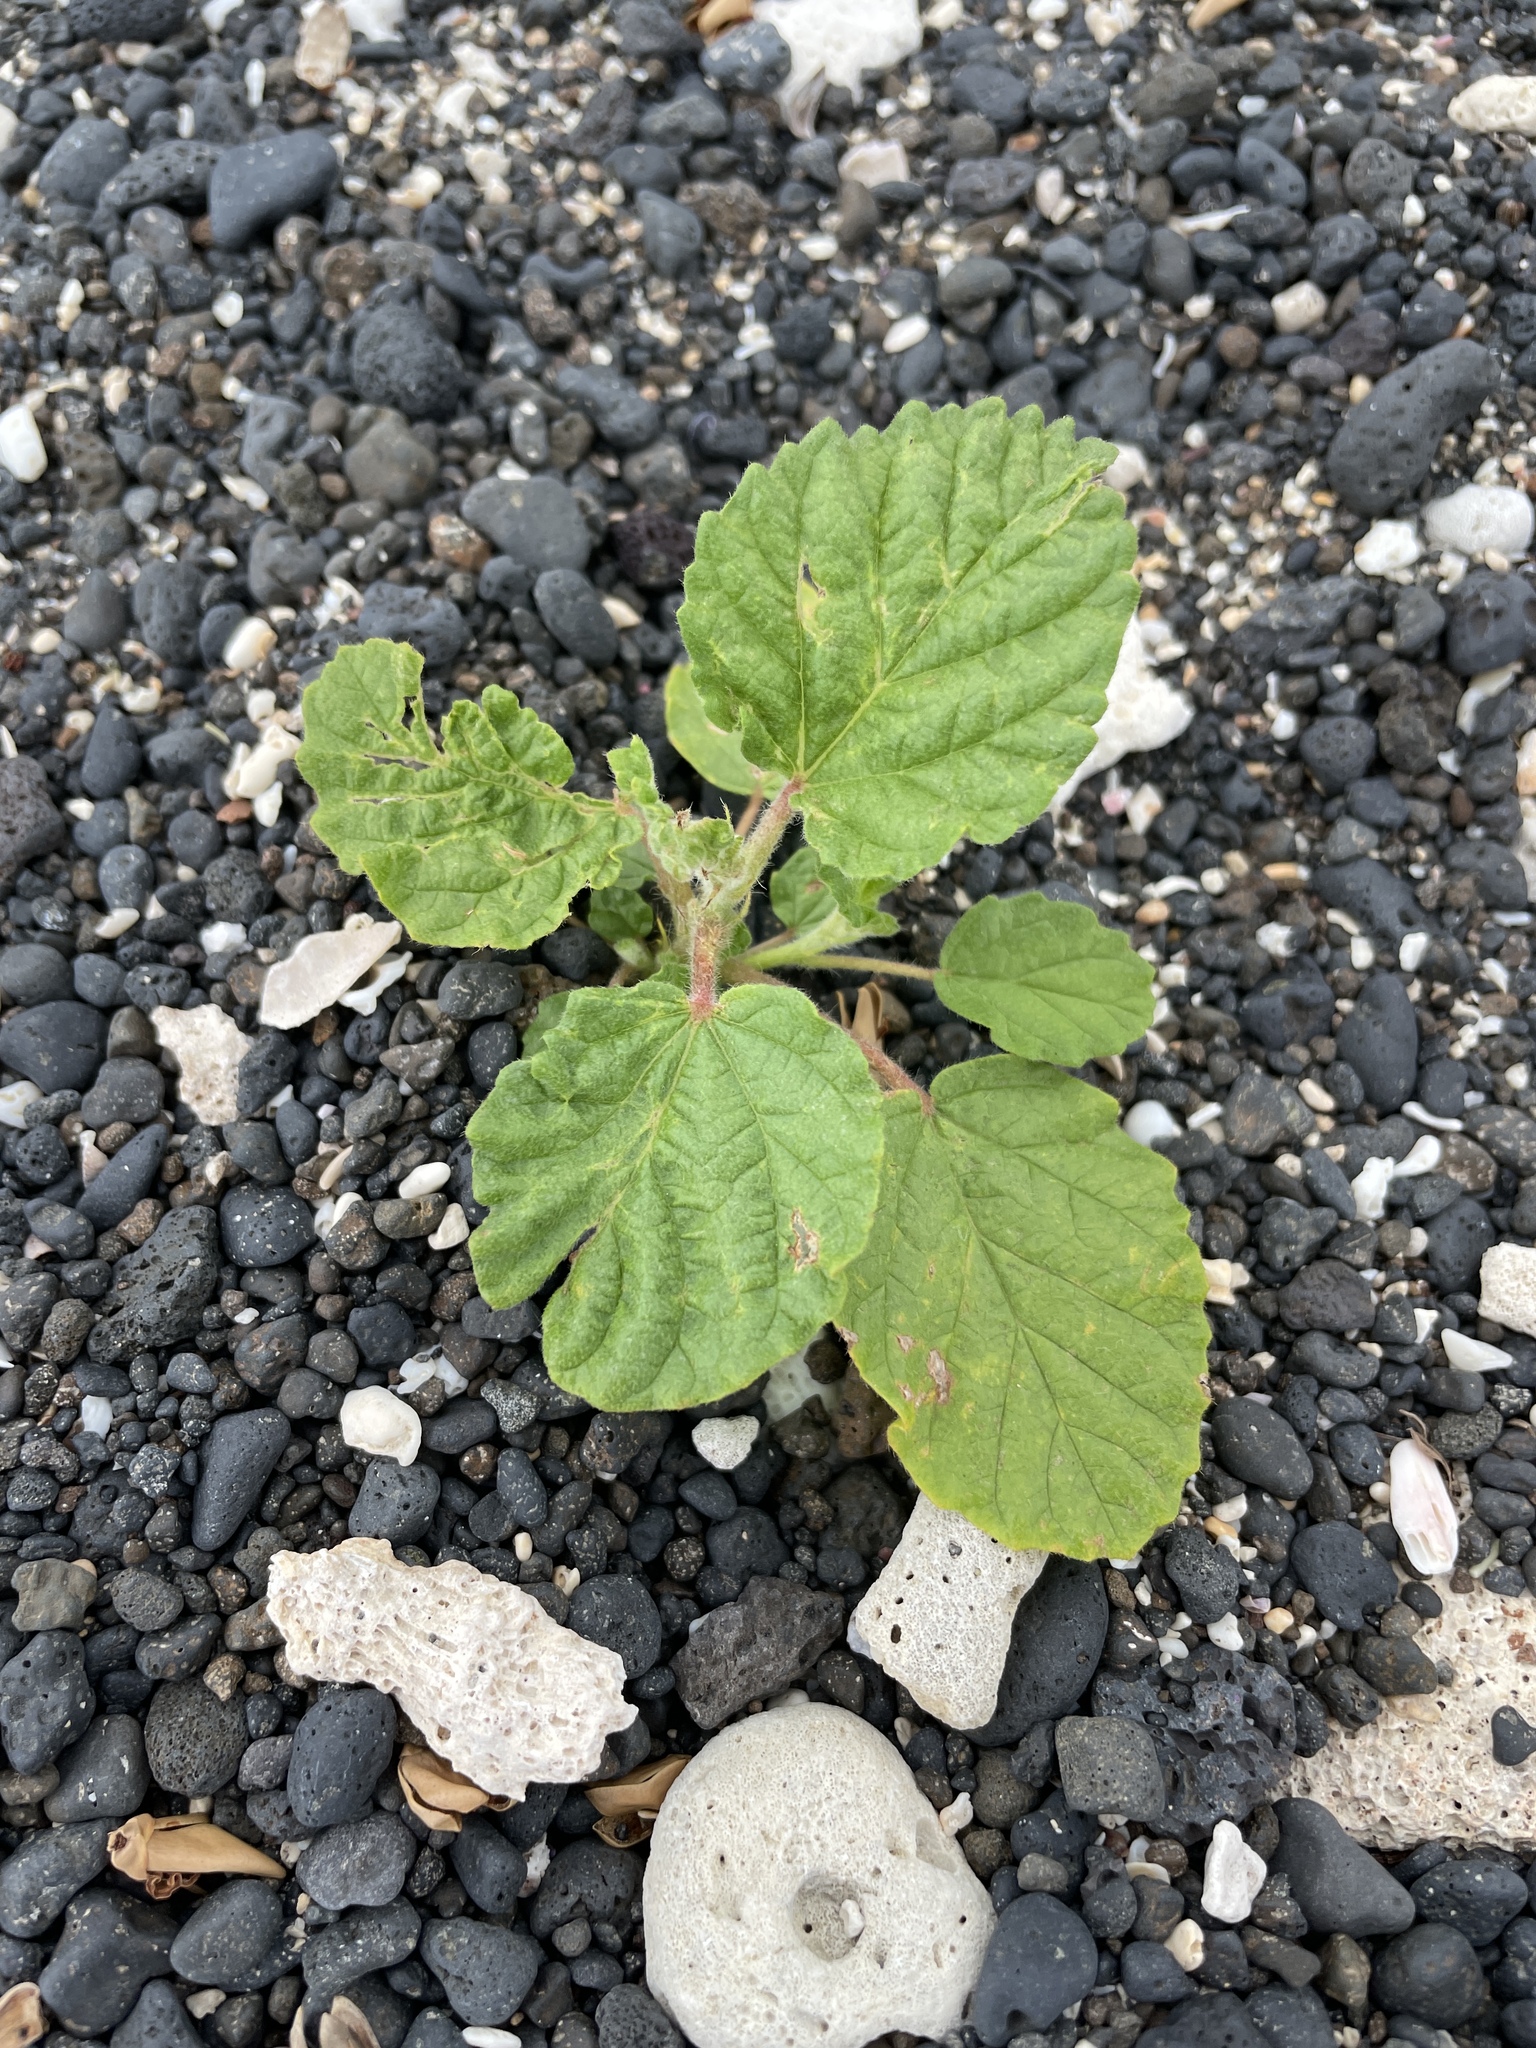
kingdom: Plantae
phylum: Tracheophyta
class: Magnoliopsida
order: Malvales
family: Malvaceae
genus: Waltheria
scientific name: Waltheria indica
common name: Leather-coat
